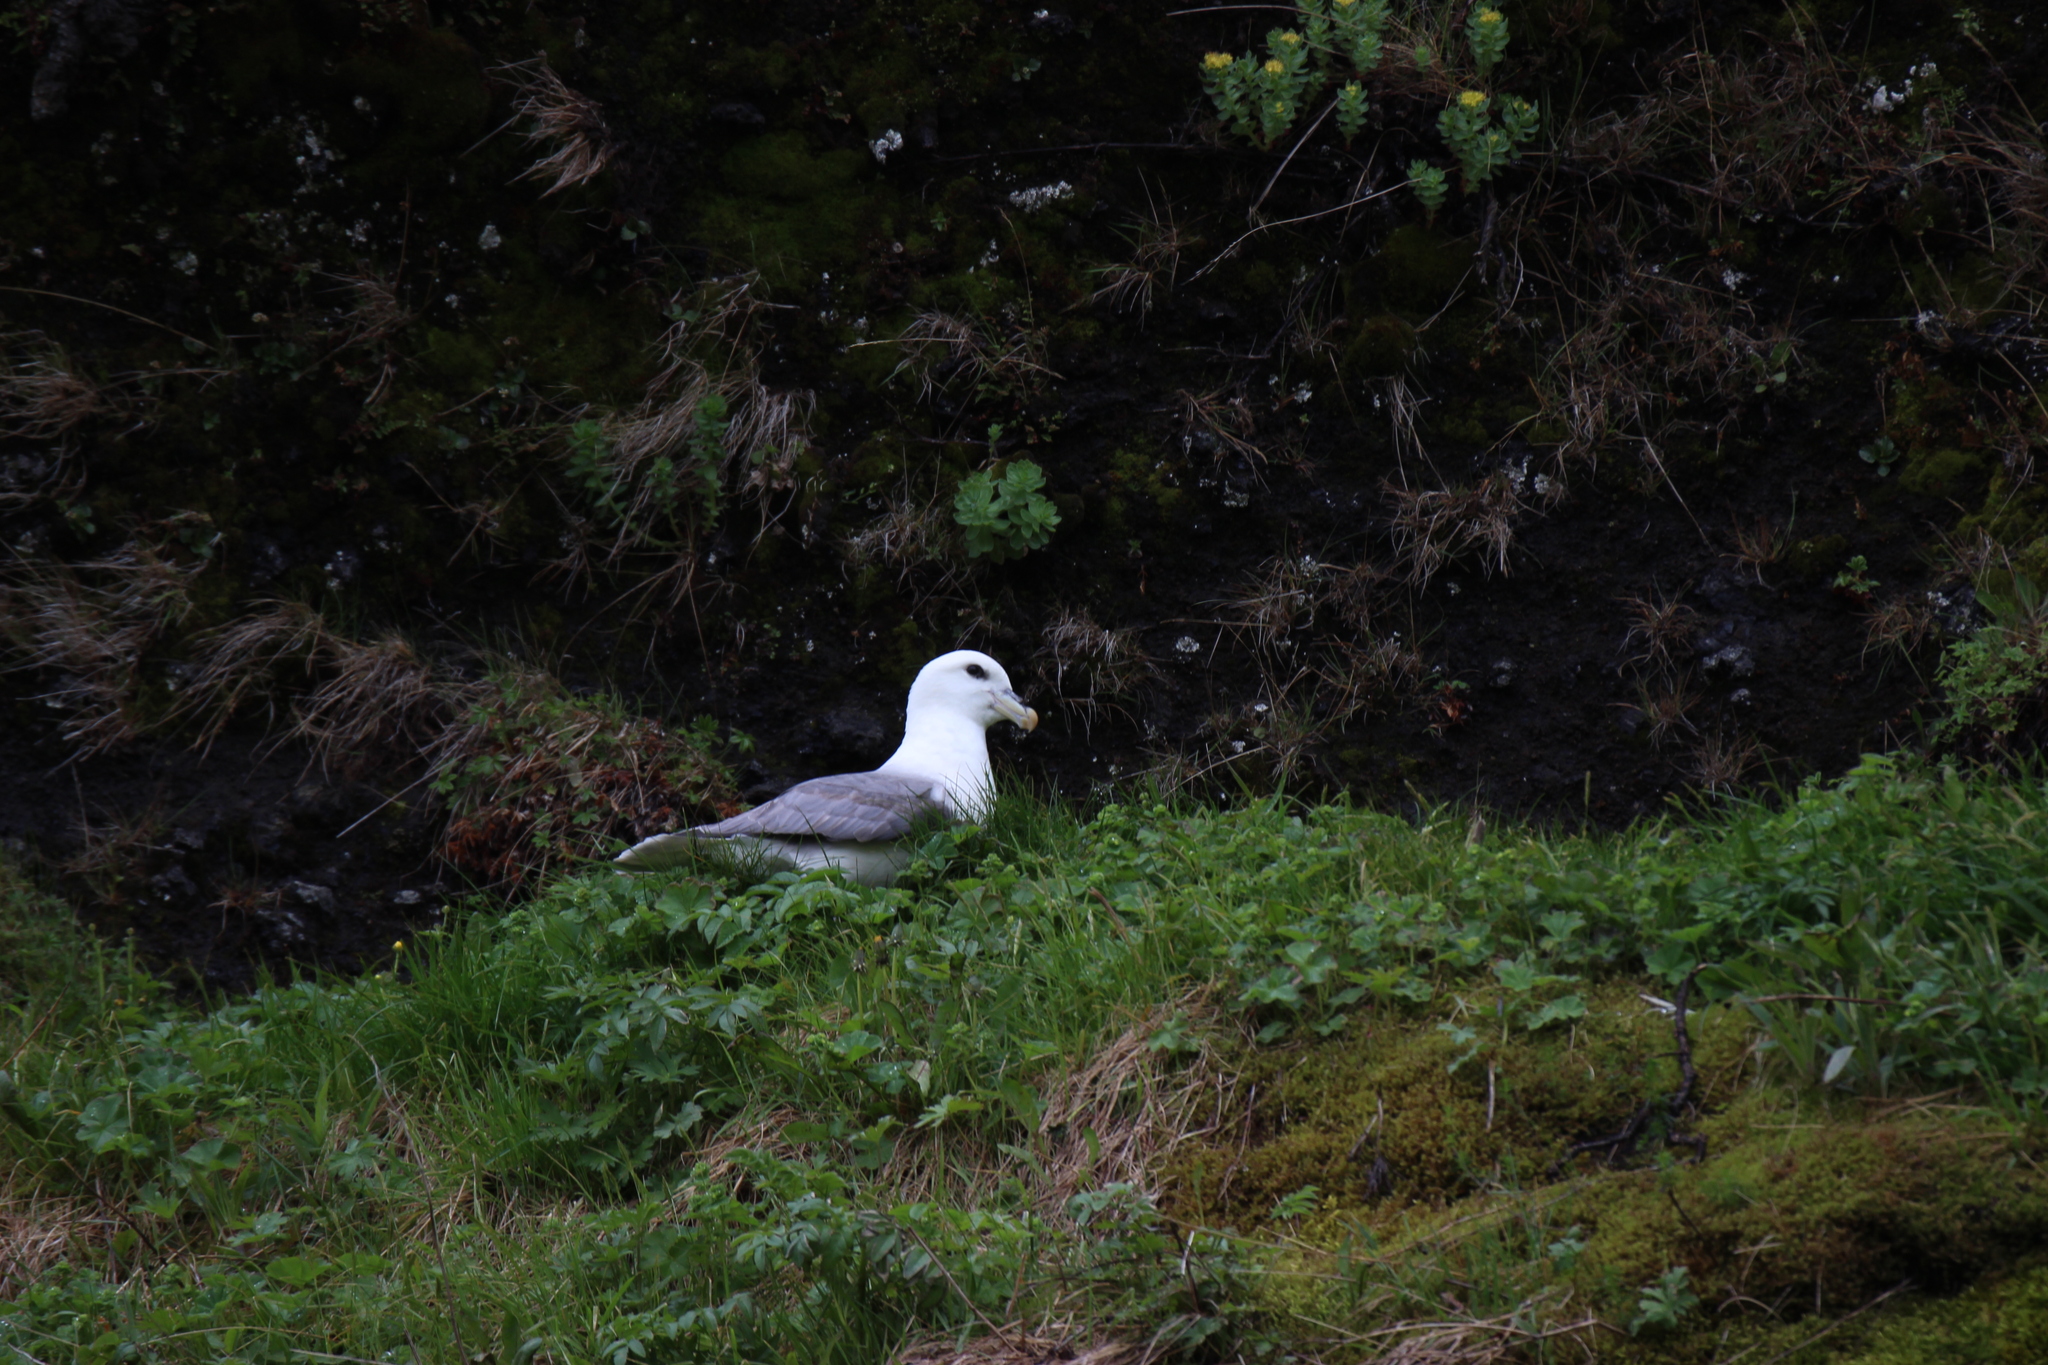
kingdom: Animalia
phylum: Chordata
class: Aves
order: Procellariiformes
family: Procellariidae
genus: Fulmarus
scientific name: Fulmarus glacialis
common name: Northern fulmar
